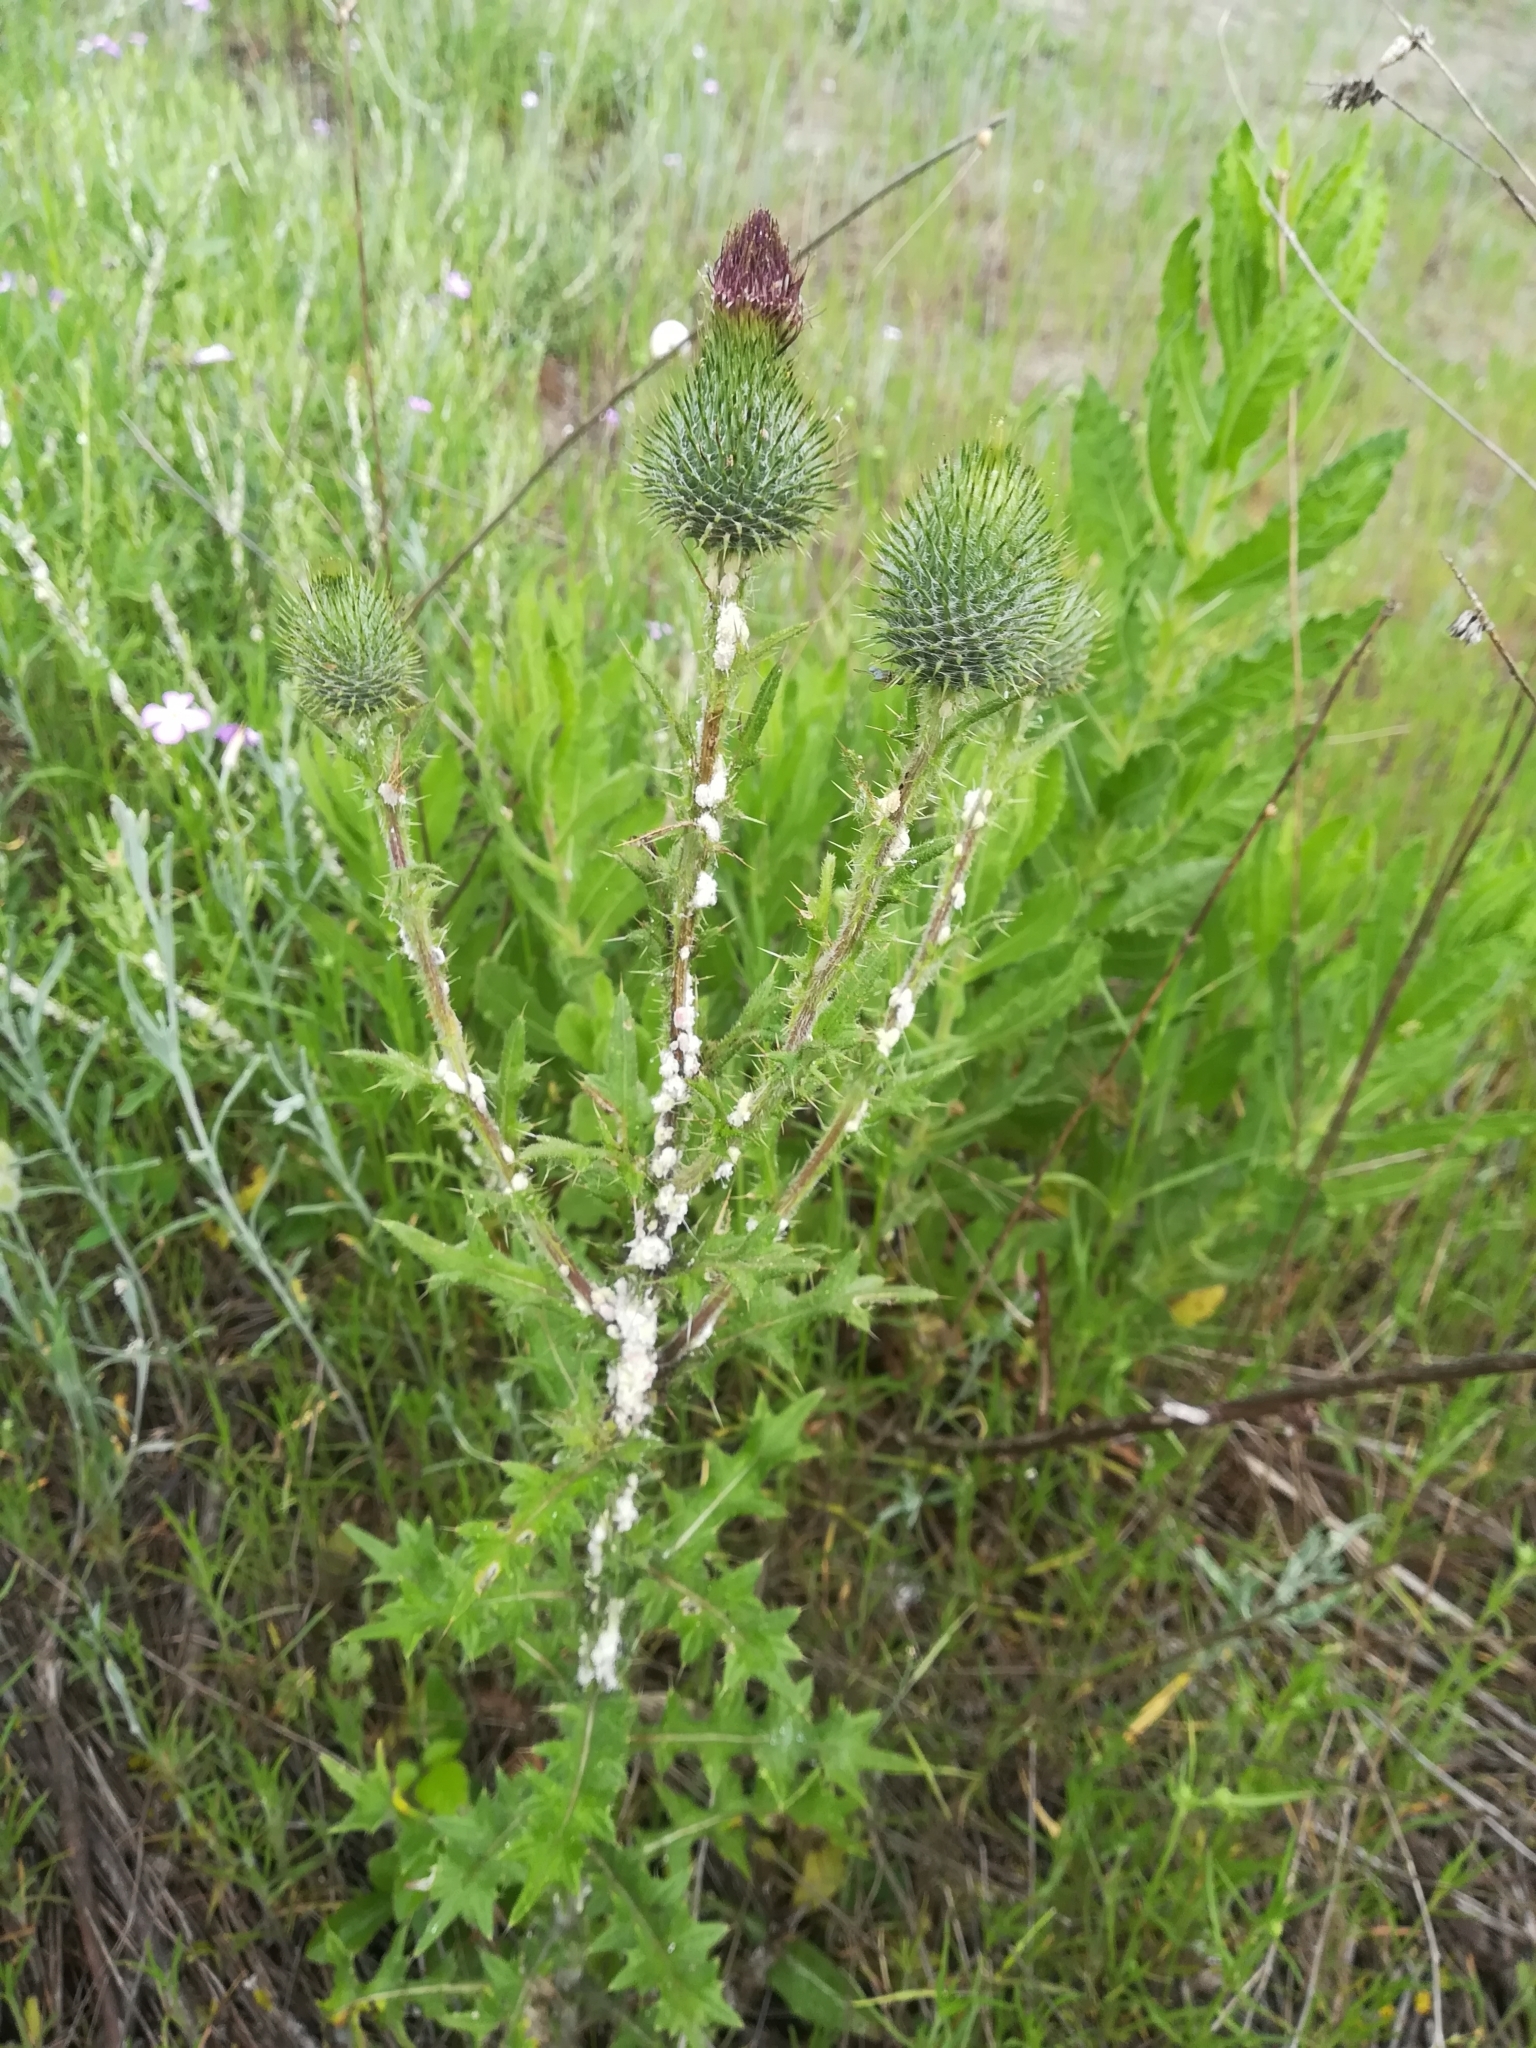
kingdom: Plantae
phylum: Tracheophyta
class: Magnoliopsida
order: Asterales
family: Asteraceae
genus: Cirsium
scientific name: Cirsium vulgare
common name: Bull thistle
